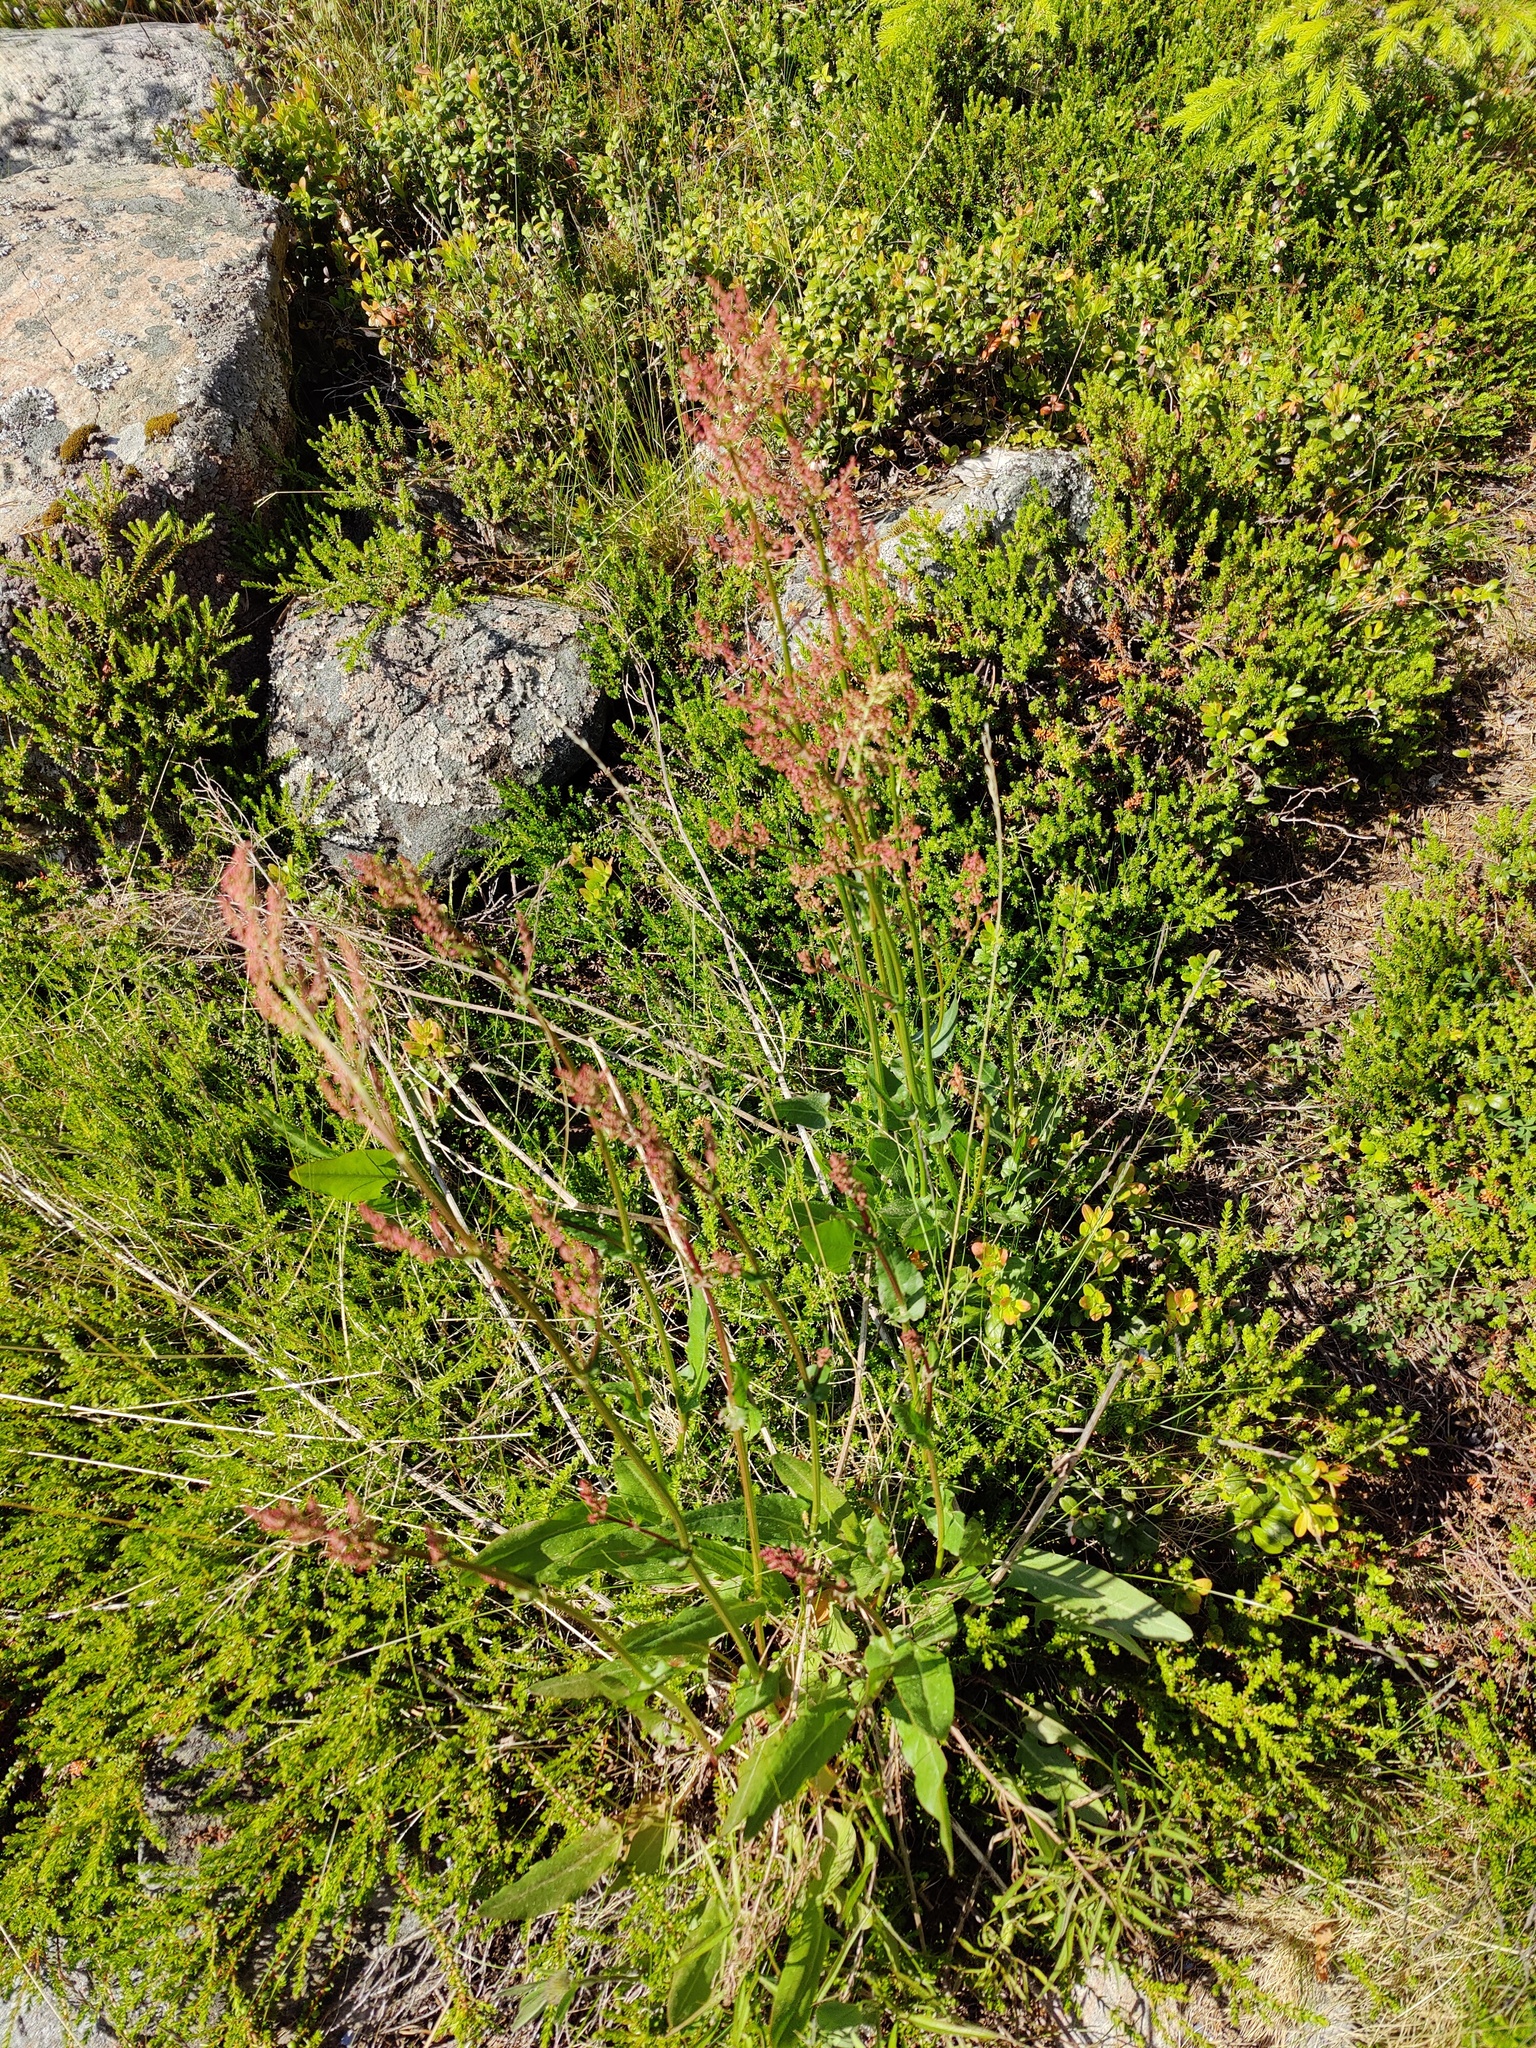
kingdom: Plantae
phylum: Tracheophyta
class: Magnoliopsida
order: Caryophyllales
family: Polygonaceae
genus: Rumex
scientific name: Rumex thyrsiflorus
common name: Garden sorrel
